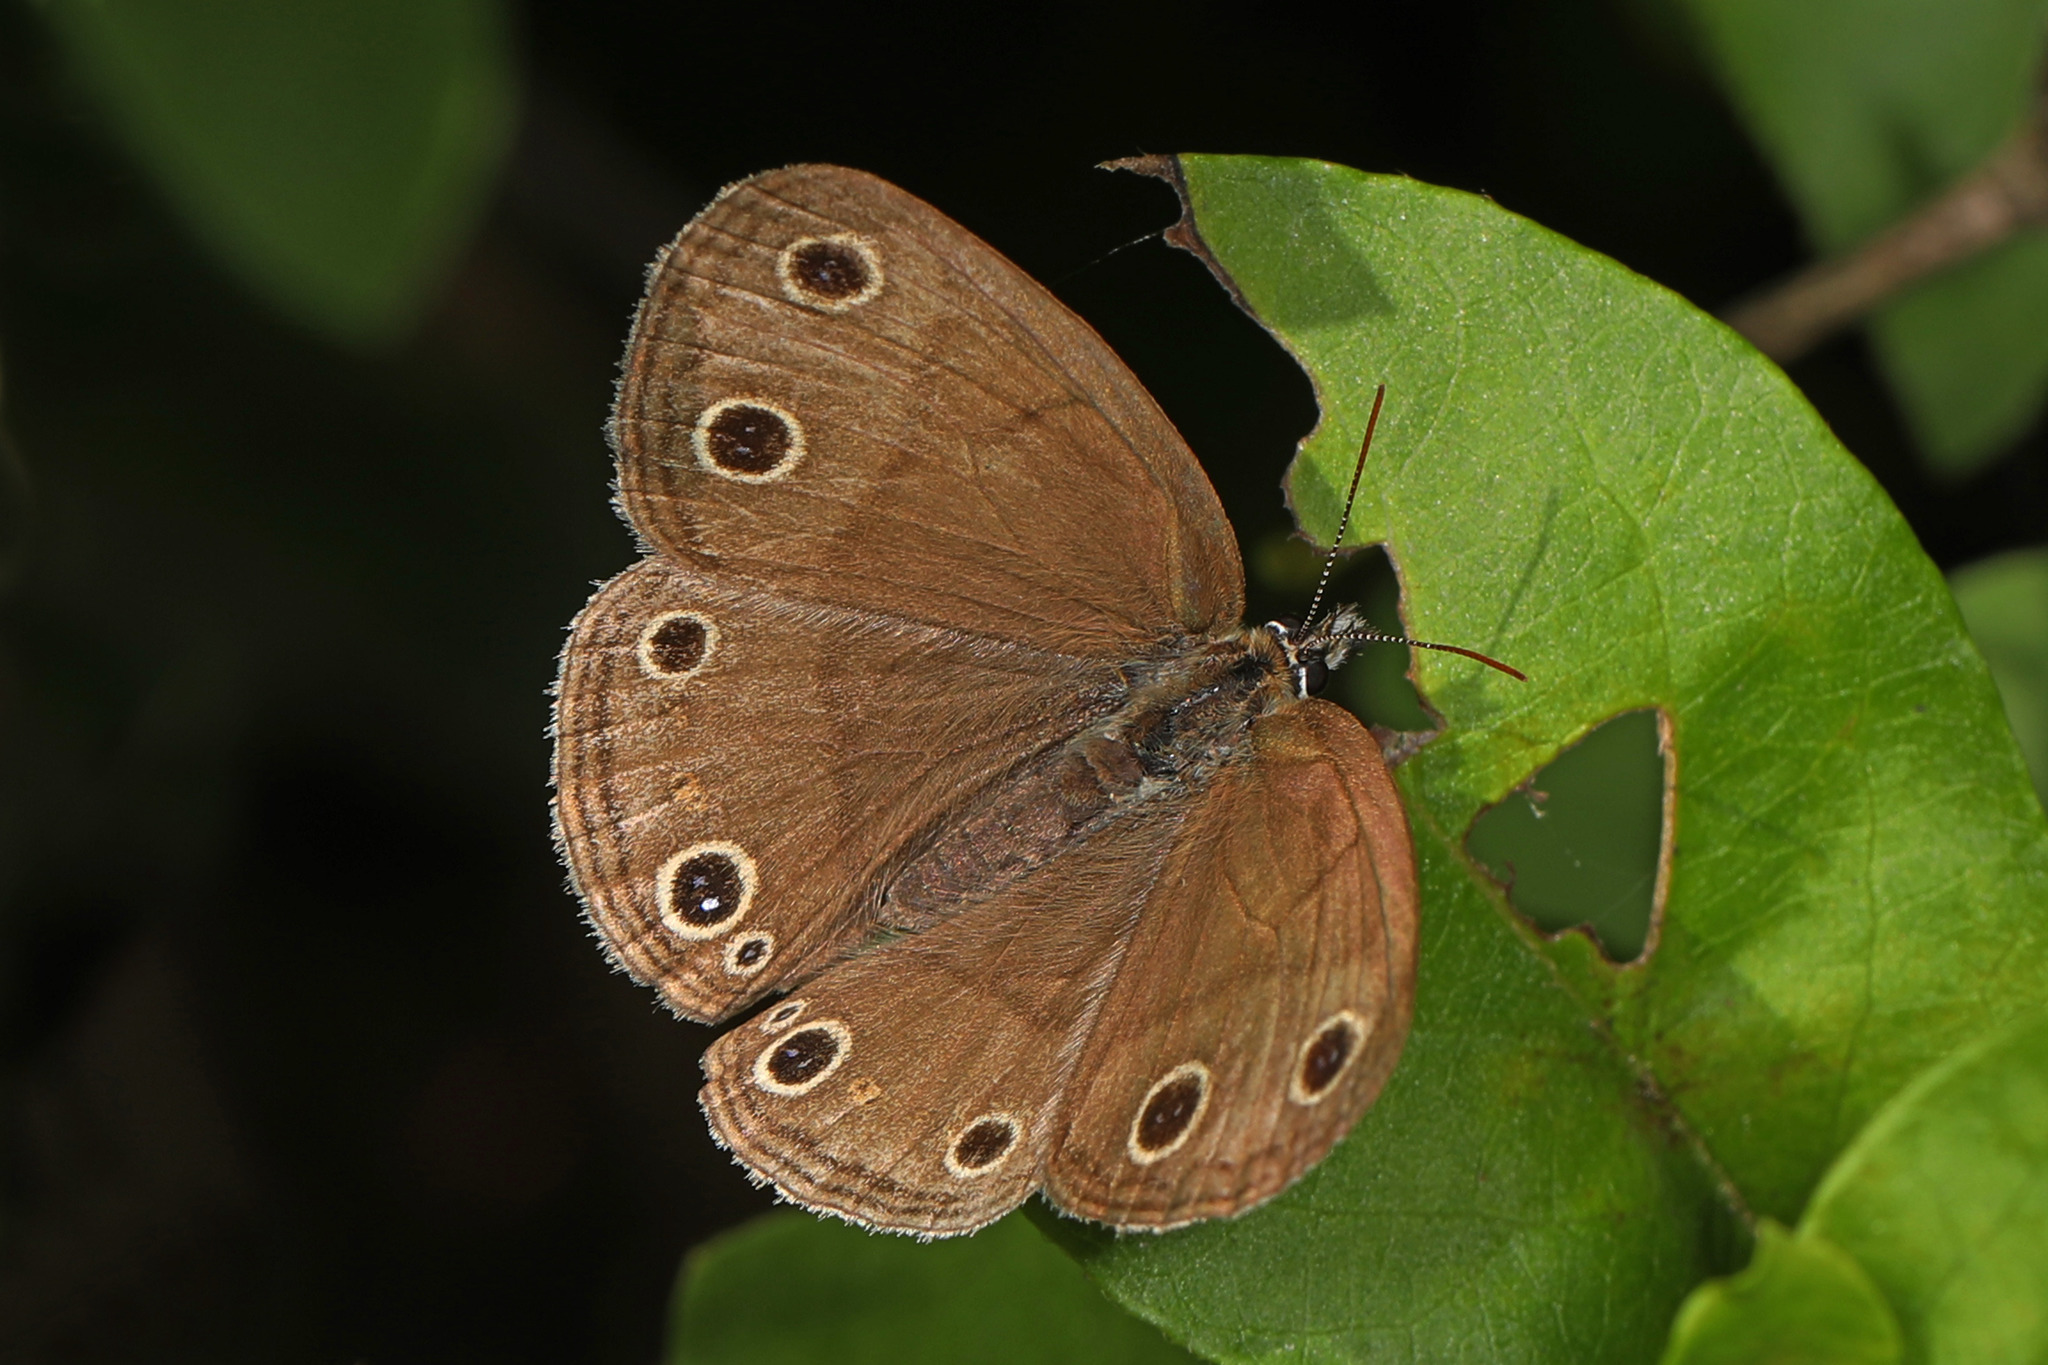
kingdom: Animalia
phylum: Arthropoda
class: Insecta
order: Lepidoptera
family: Nymphalidae
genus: Euptychia
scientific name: Euptychia cymela
